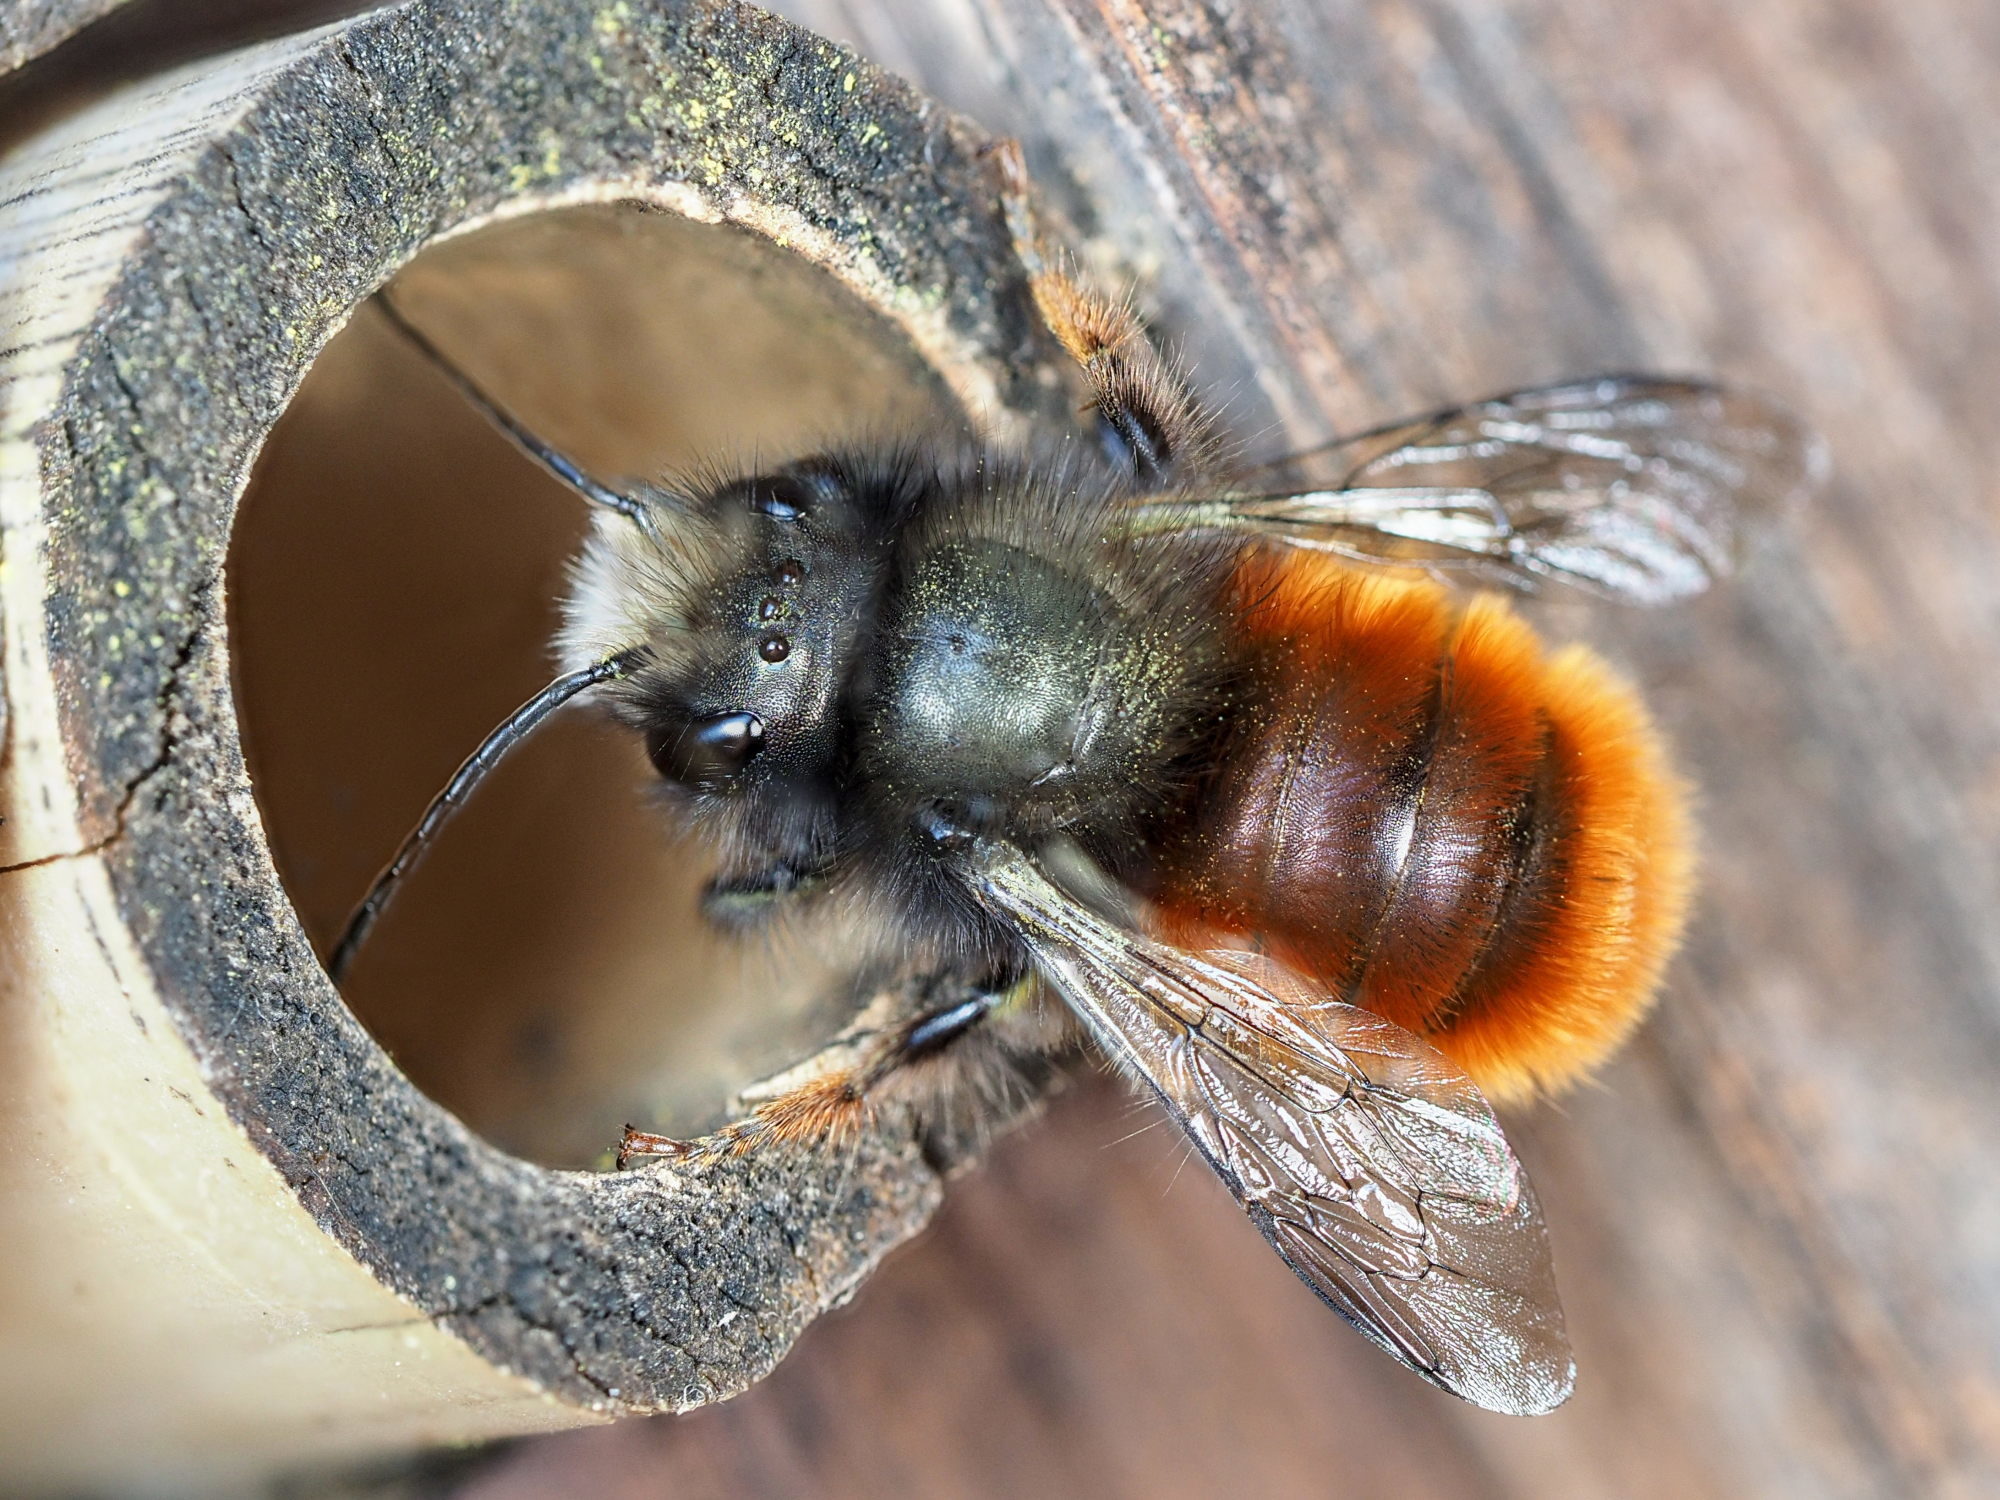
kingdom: Animalia
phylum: Arthropoda
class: Insecta
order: Hymenoptera
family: Megachilidae
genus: Osmia
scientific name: Osmia cornuta
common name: Mason bee
